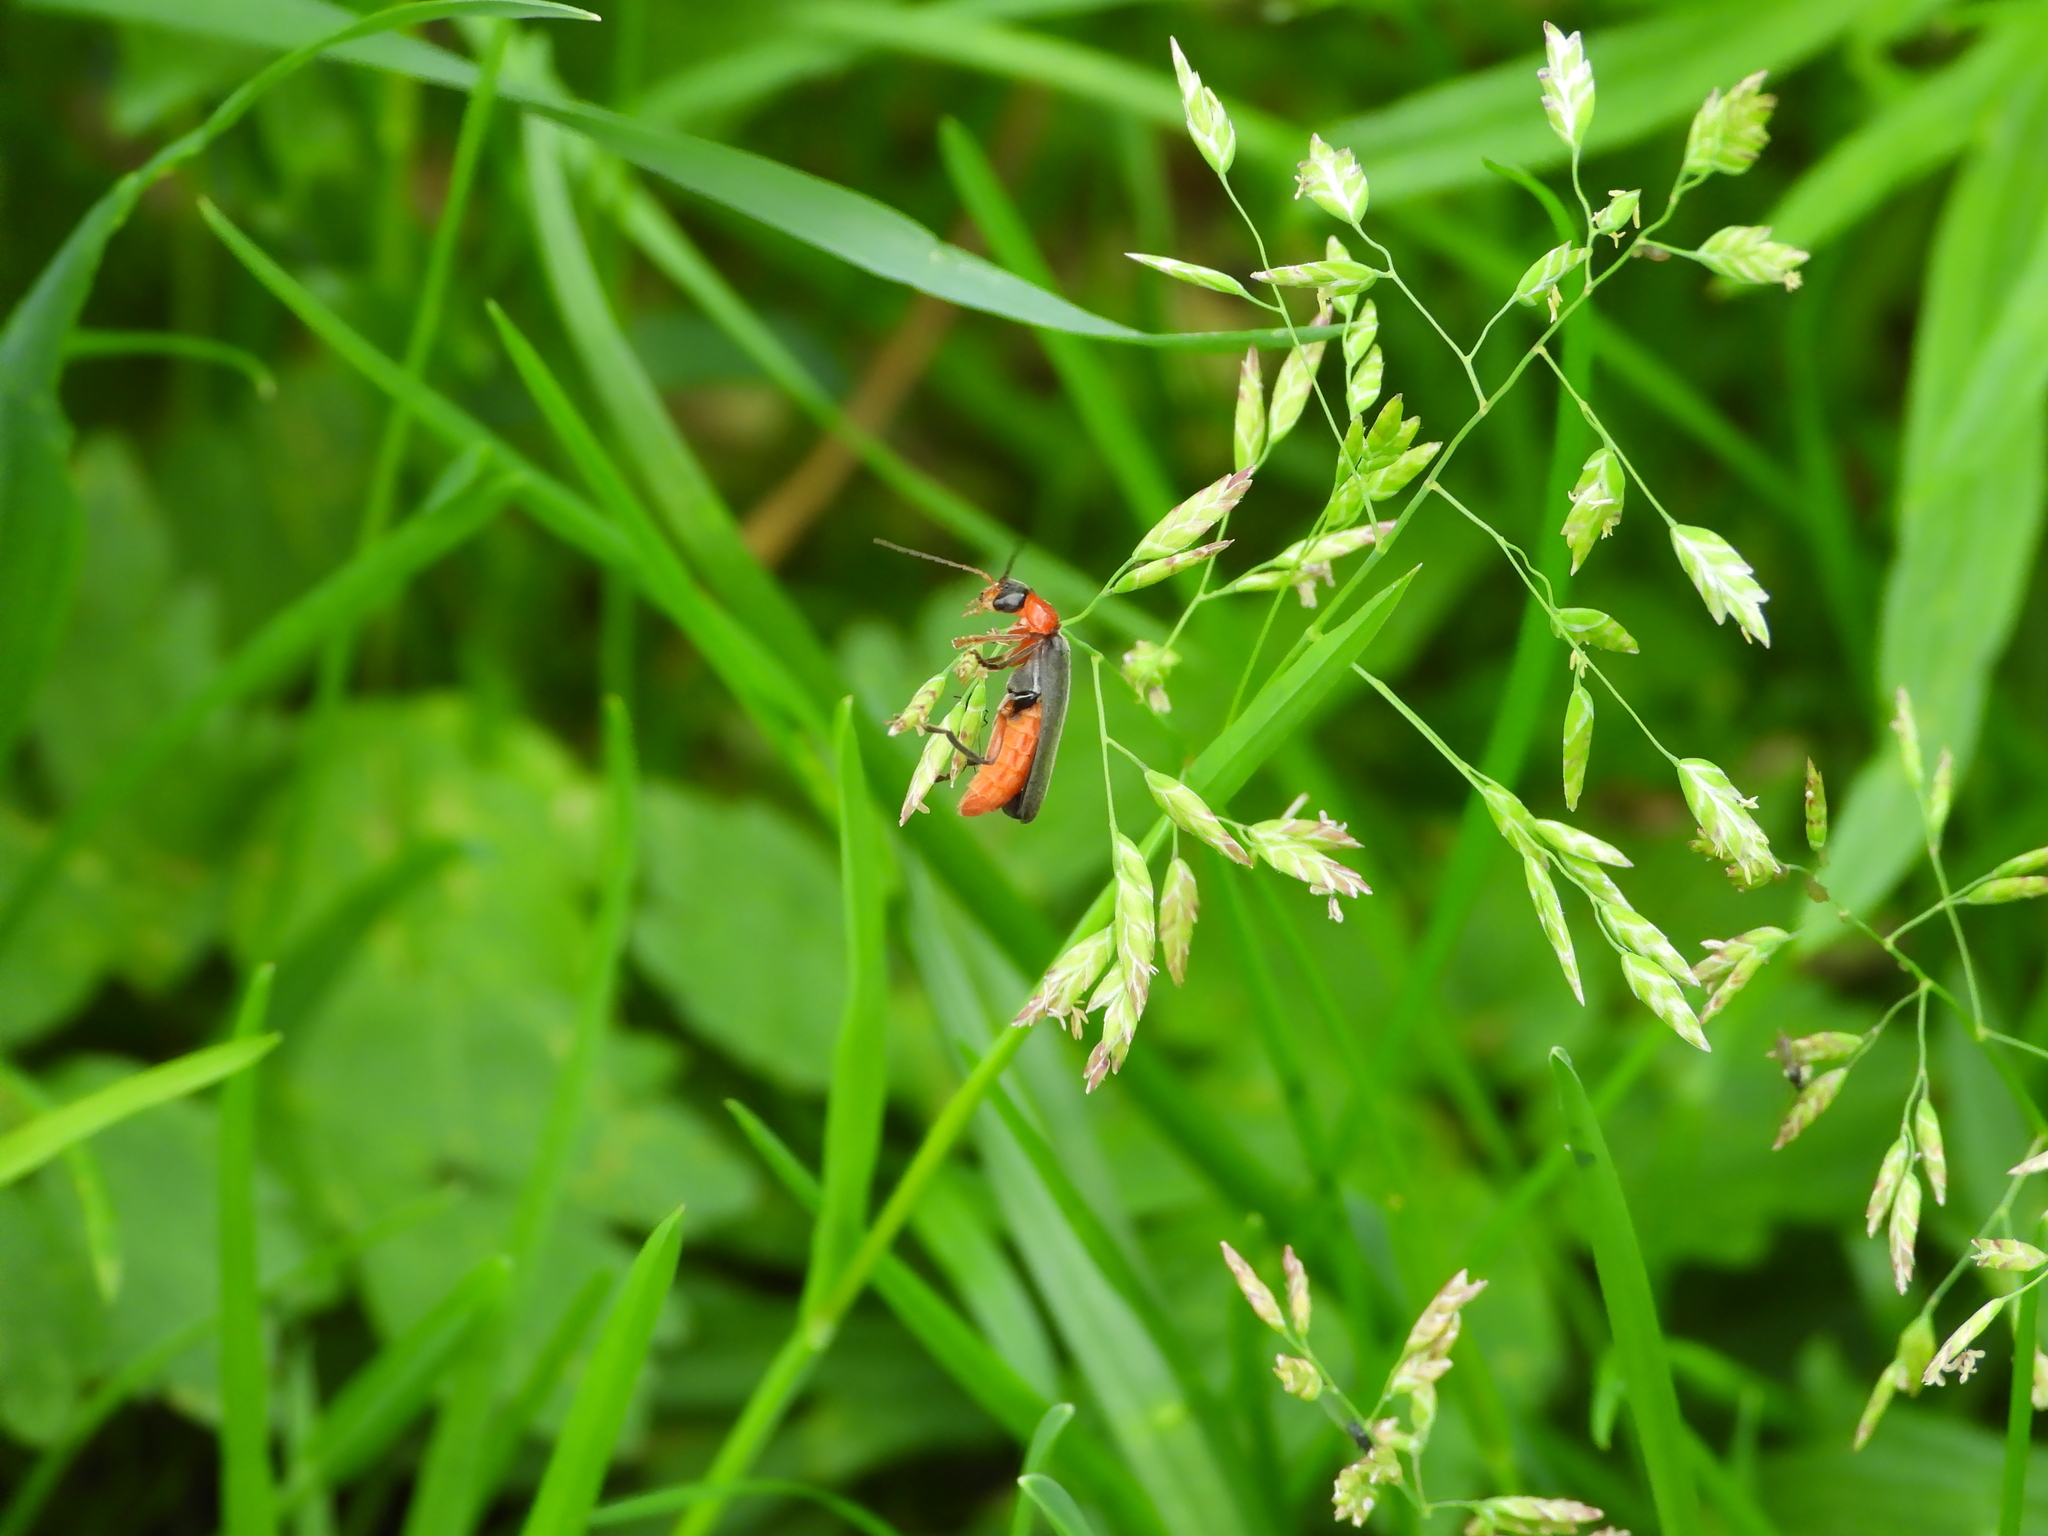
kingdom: Animalia
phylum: Arthropoda
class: Insecta
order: Coleoptera
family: Cantharidae
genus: Cantharis
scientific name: Cantharis pellucida
